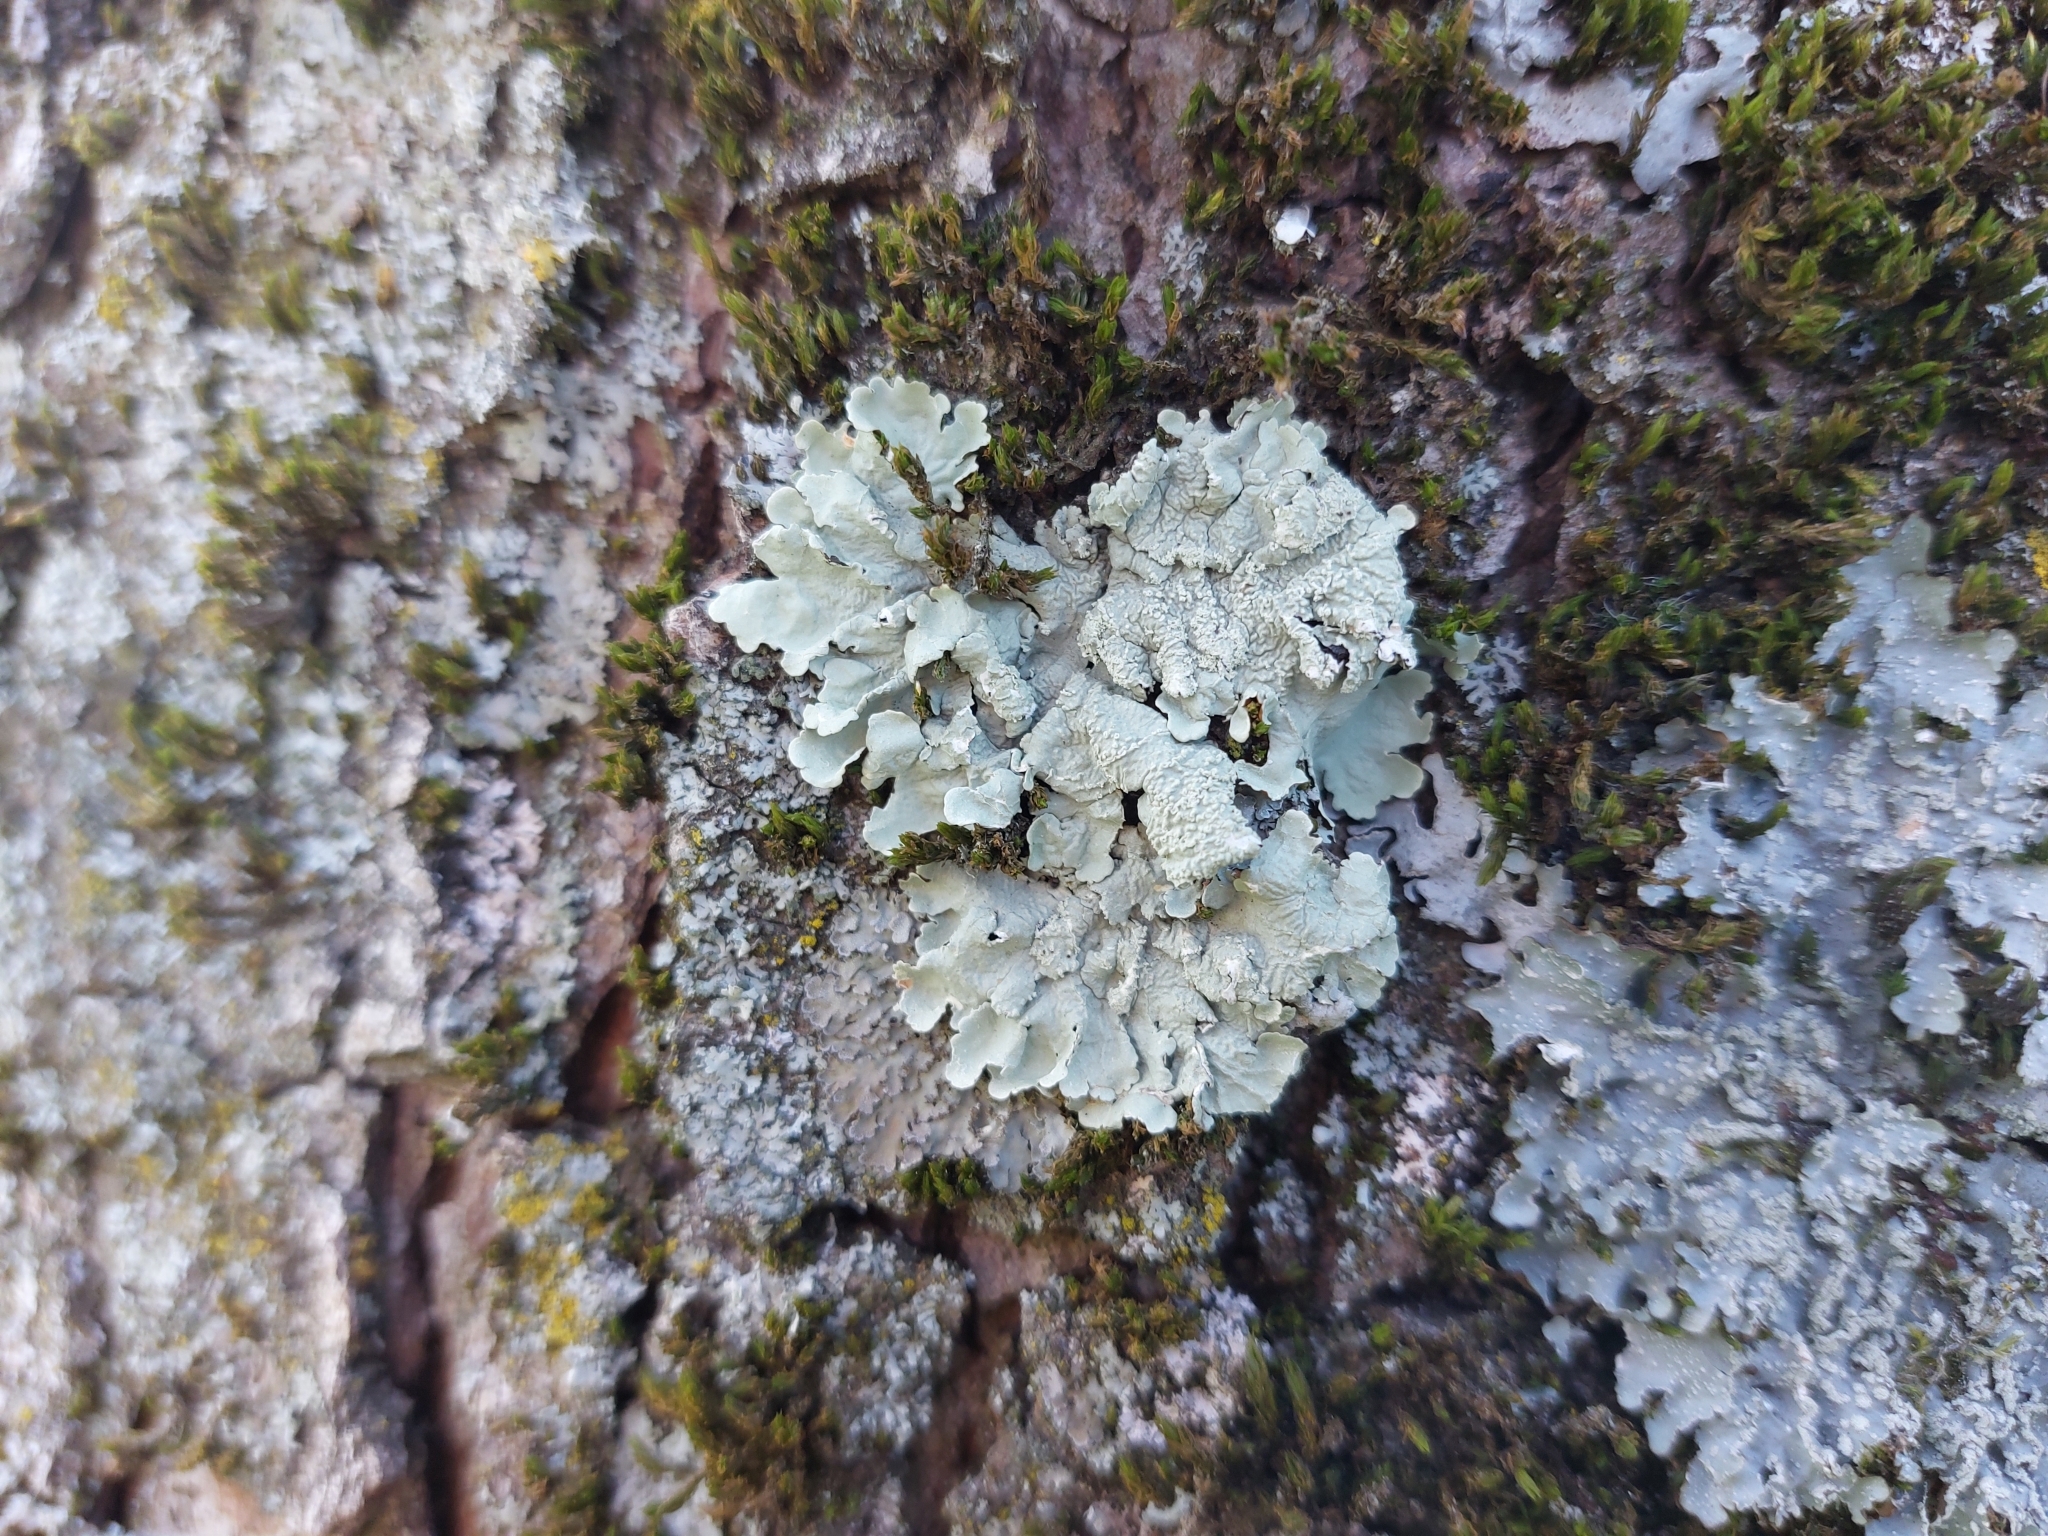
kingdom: Fungi
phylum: Ascomycota
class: Lecanoromycetes
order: Lecanorales
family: Parmeliaceae
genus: Flavoparmelia
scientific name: Flavoparmelia caperata
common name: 40-mile per hour lichen
